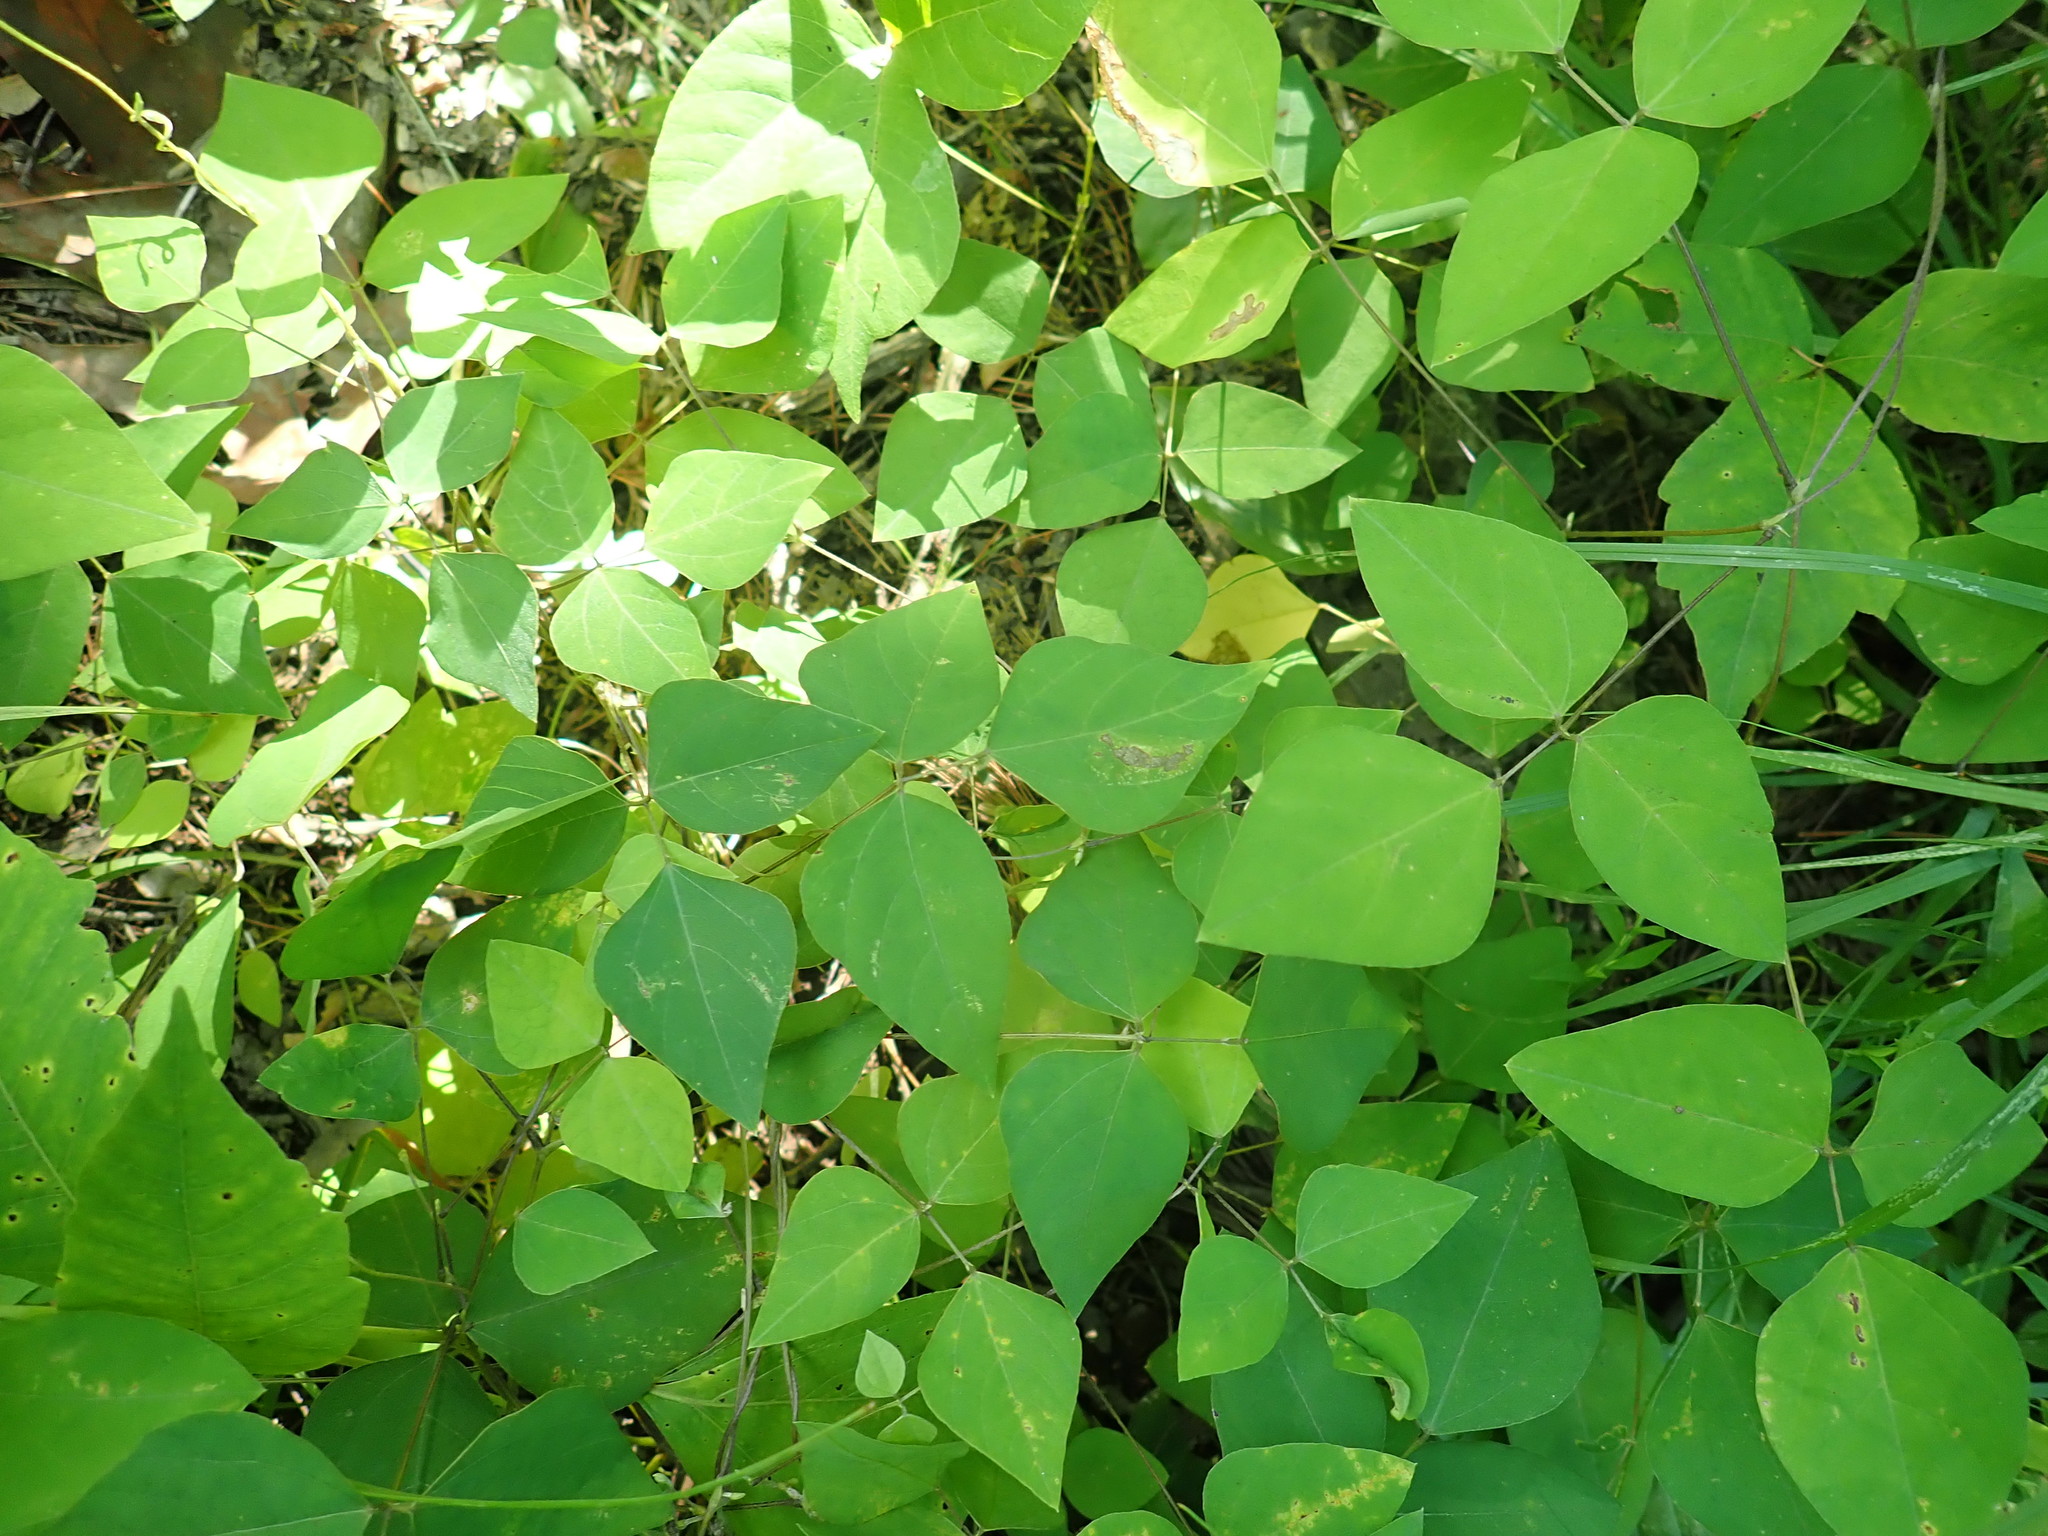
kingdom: Plantae
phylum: Tracheophyta
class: Magnoliopsida
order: Fabales
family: Fabaceae
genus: Amphicarpaea
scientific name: Amphicarpaea bracteata
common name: American hog peanut
